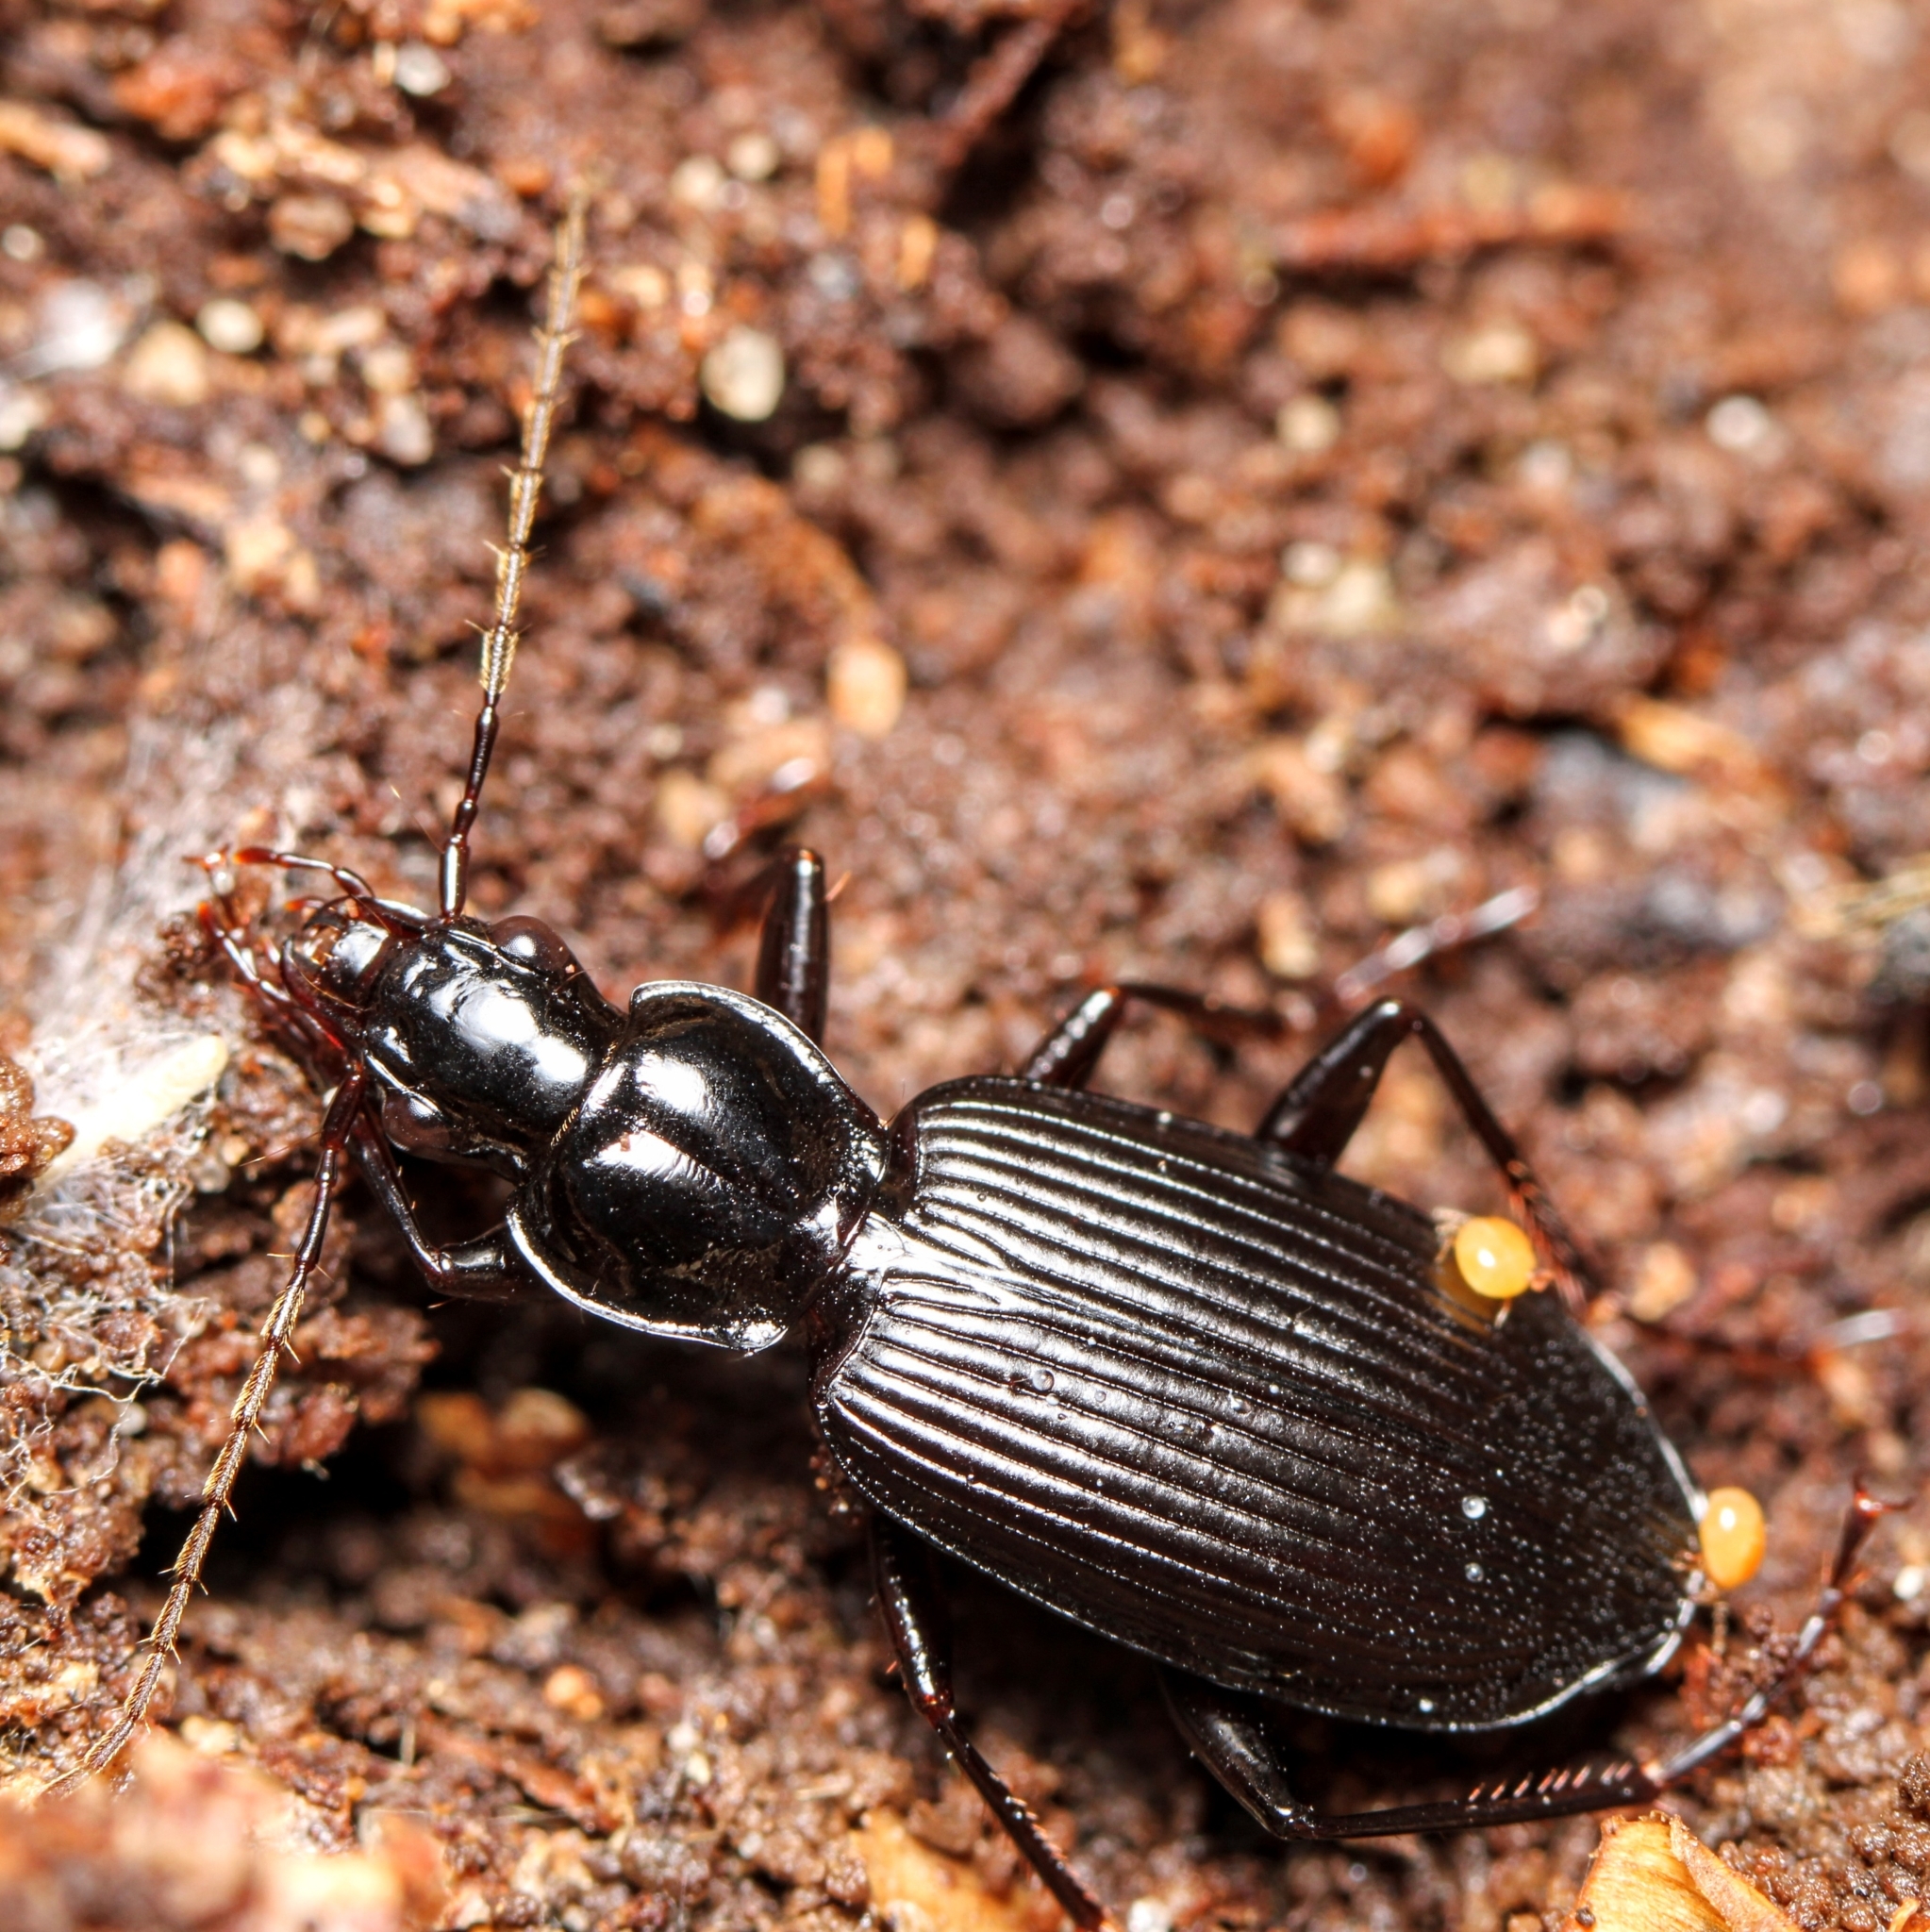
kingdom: Animalia
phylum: Arthropoda
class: Insecta
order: Coleoptera
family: Carabidae
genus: Platynus
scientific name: Platynus decentis
